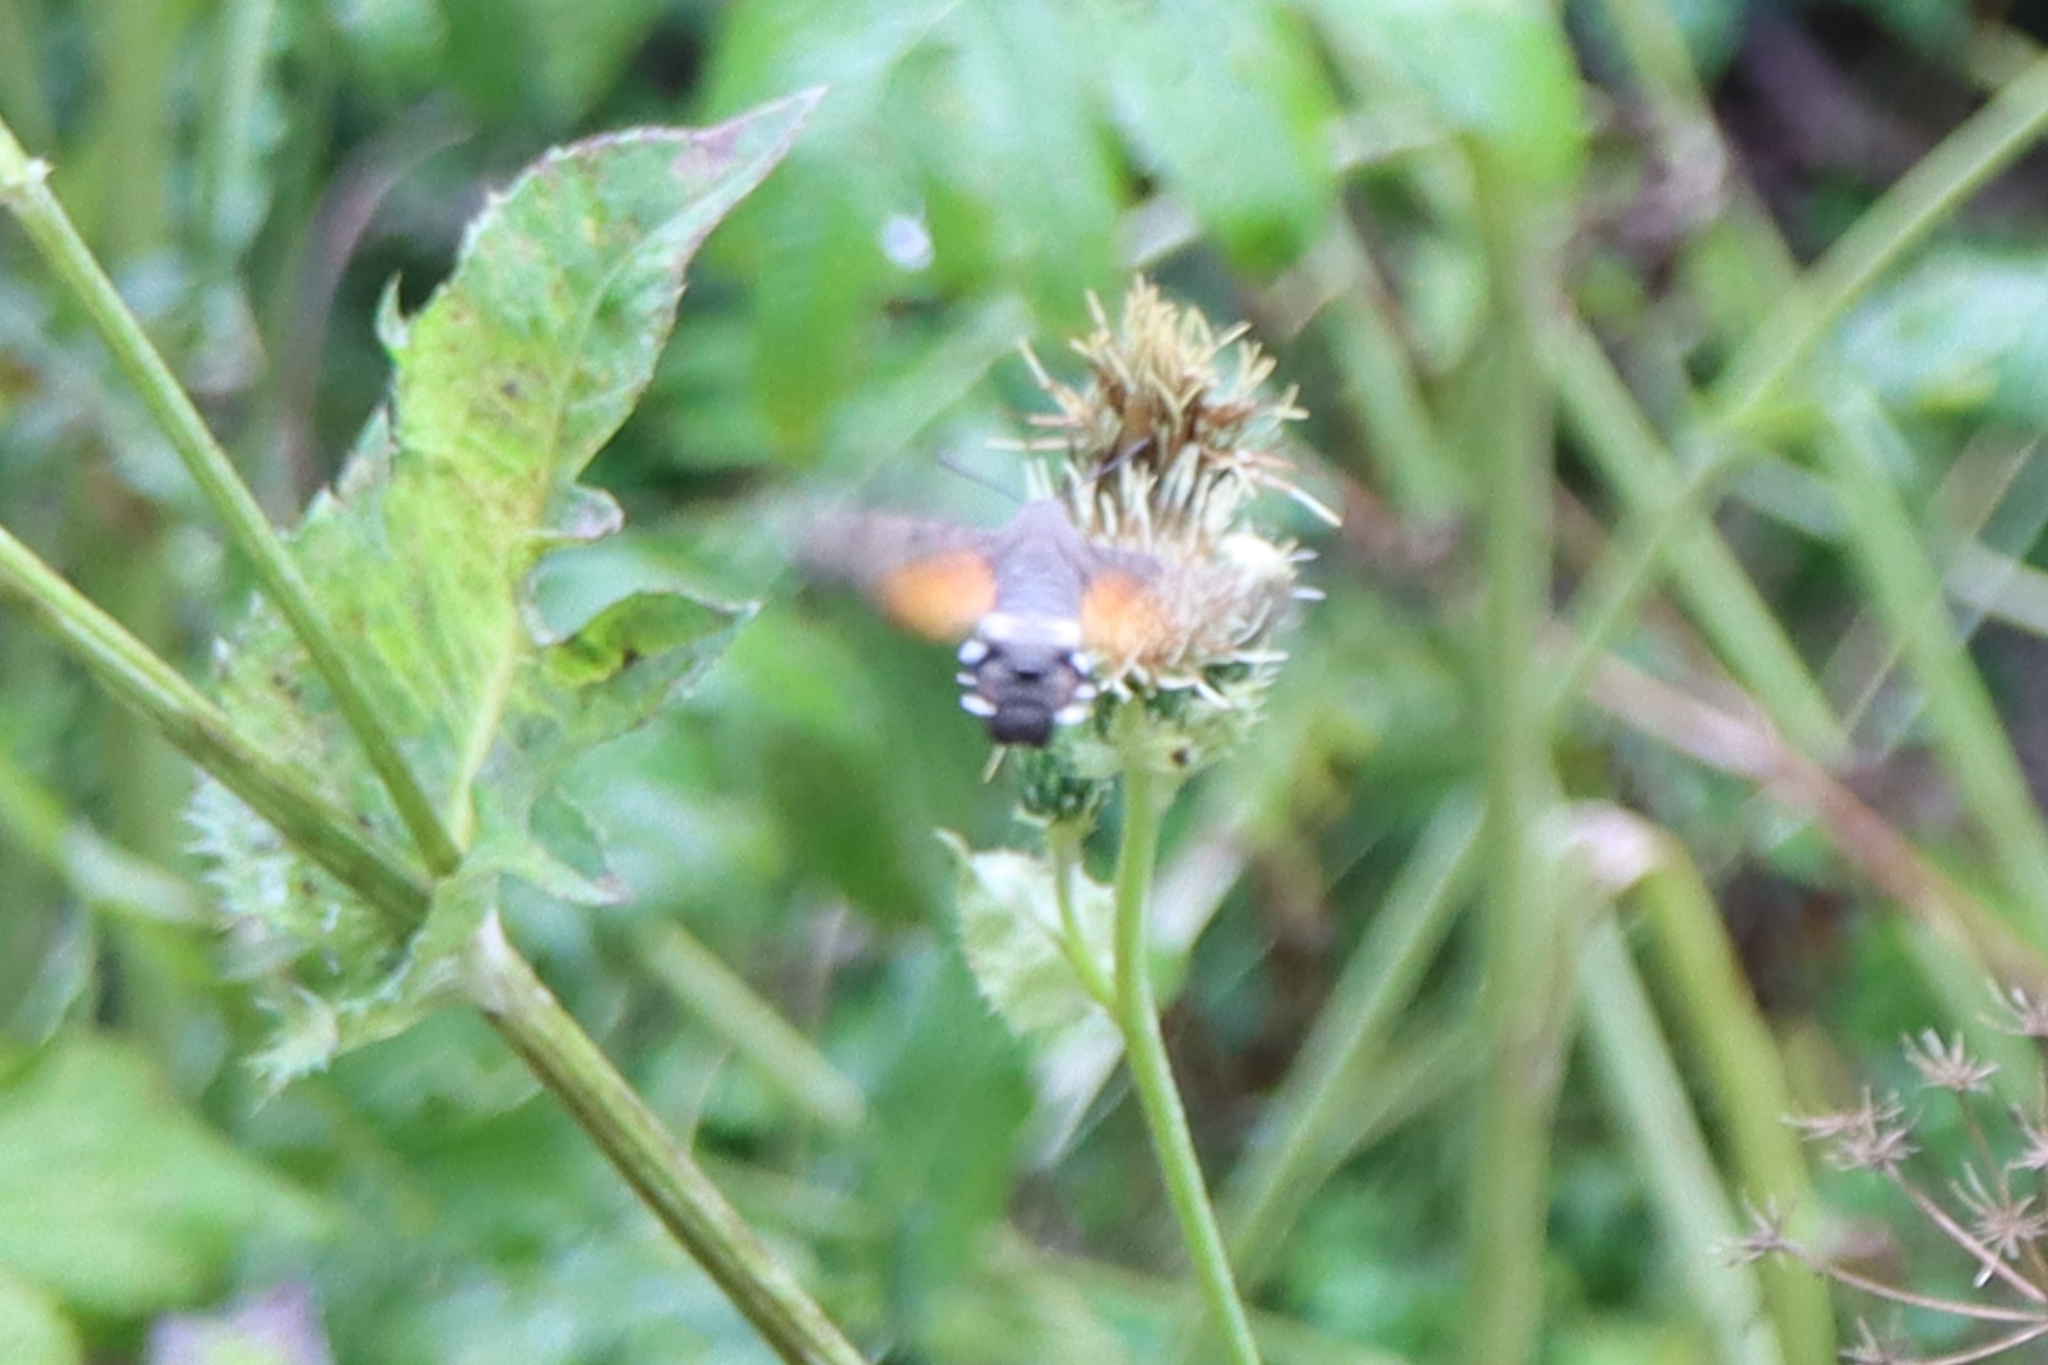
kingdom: Animalia
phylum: Arthropoda
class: Insecta
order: Lepidoptera
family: Sphingidae
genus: Macroglossum
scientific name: Macroglossum stellatarum
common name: Humming-bird hawk-moth
